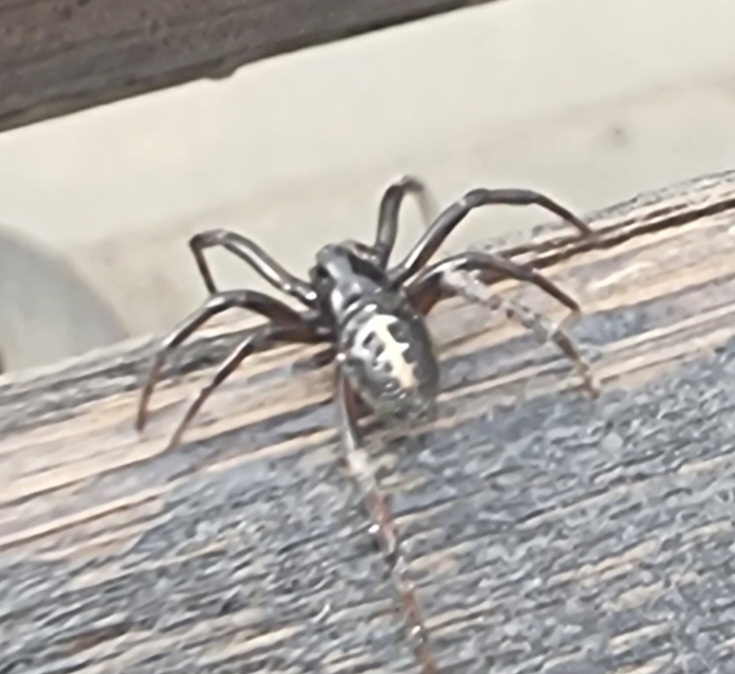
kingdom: Animalia
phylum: Arthropoda
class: Arachnida
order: Araneae
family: Theridiidae
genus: Steatoda
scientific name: Steatoda paykulliana
